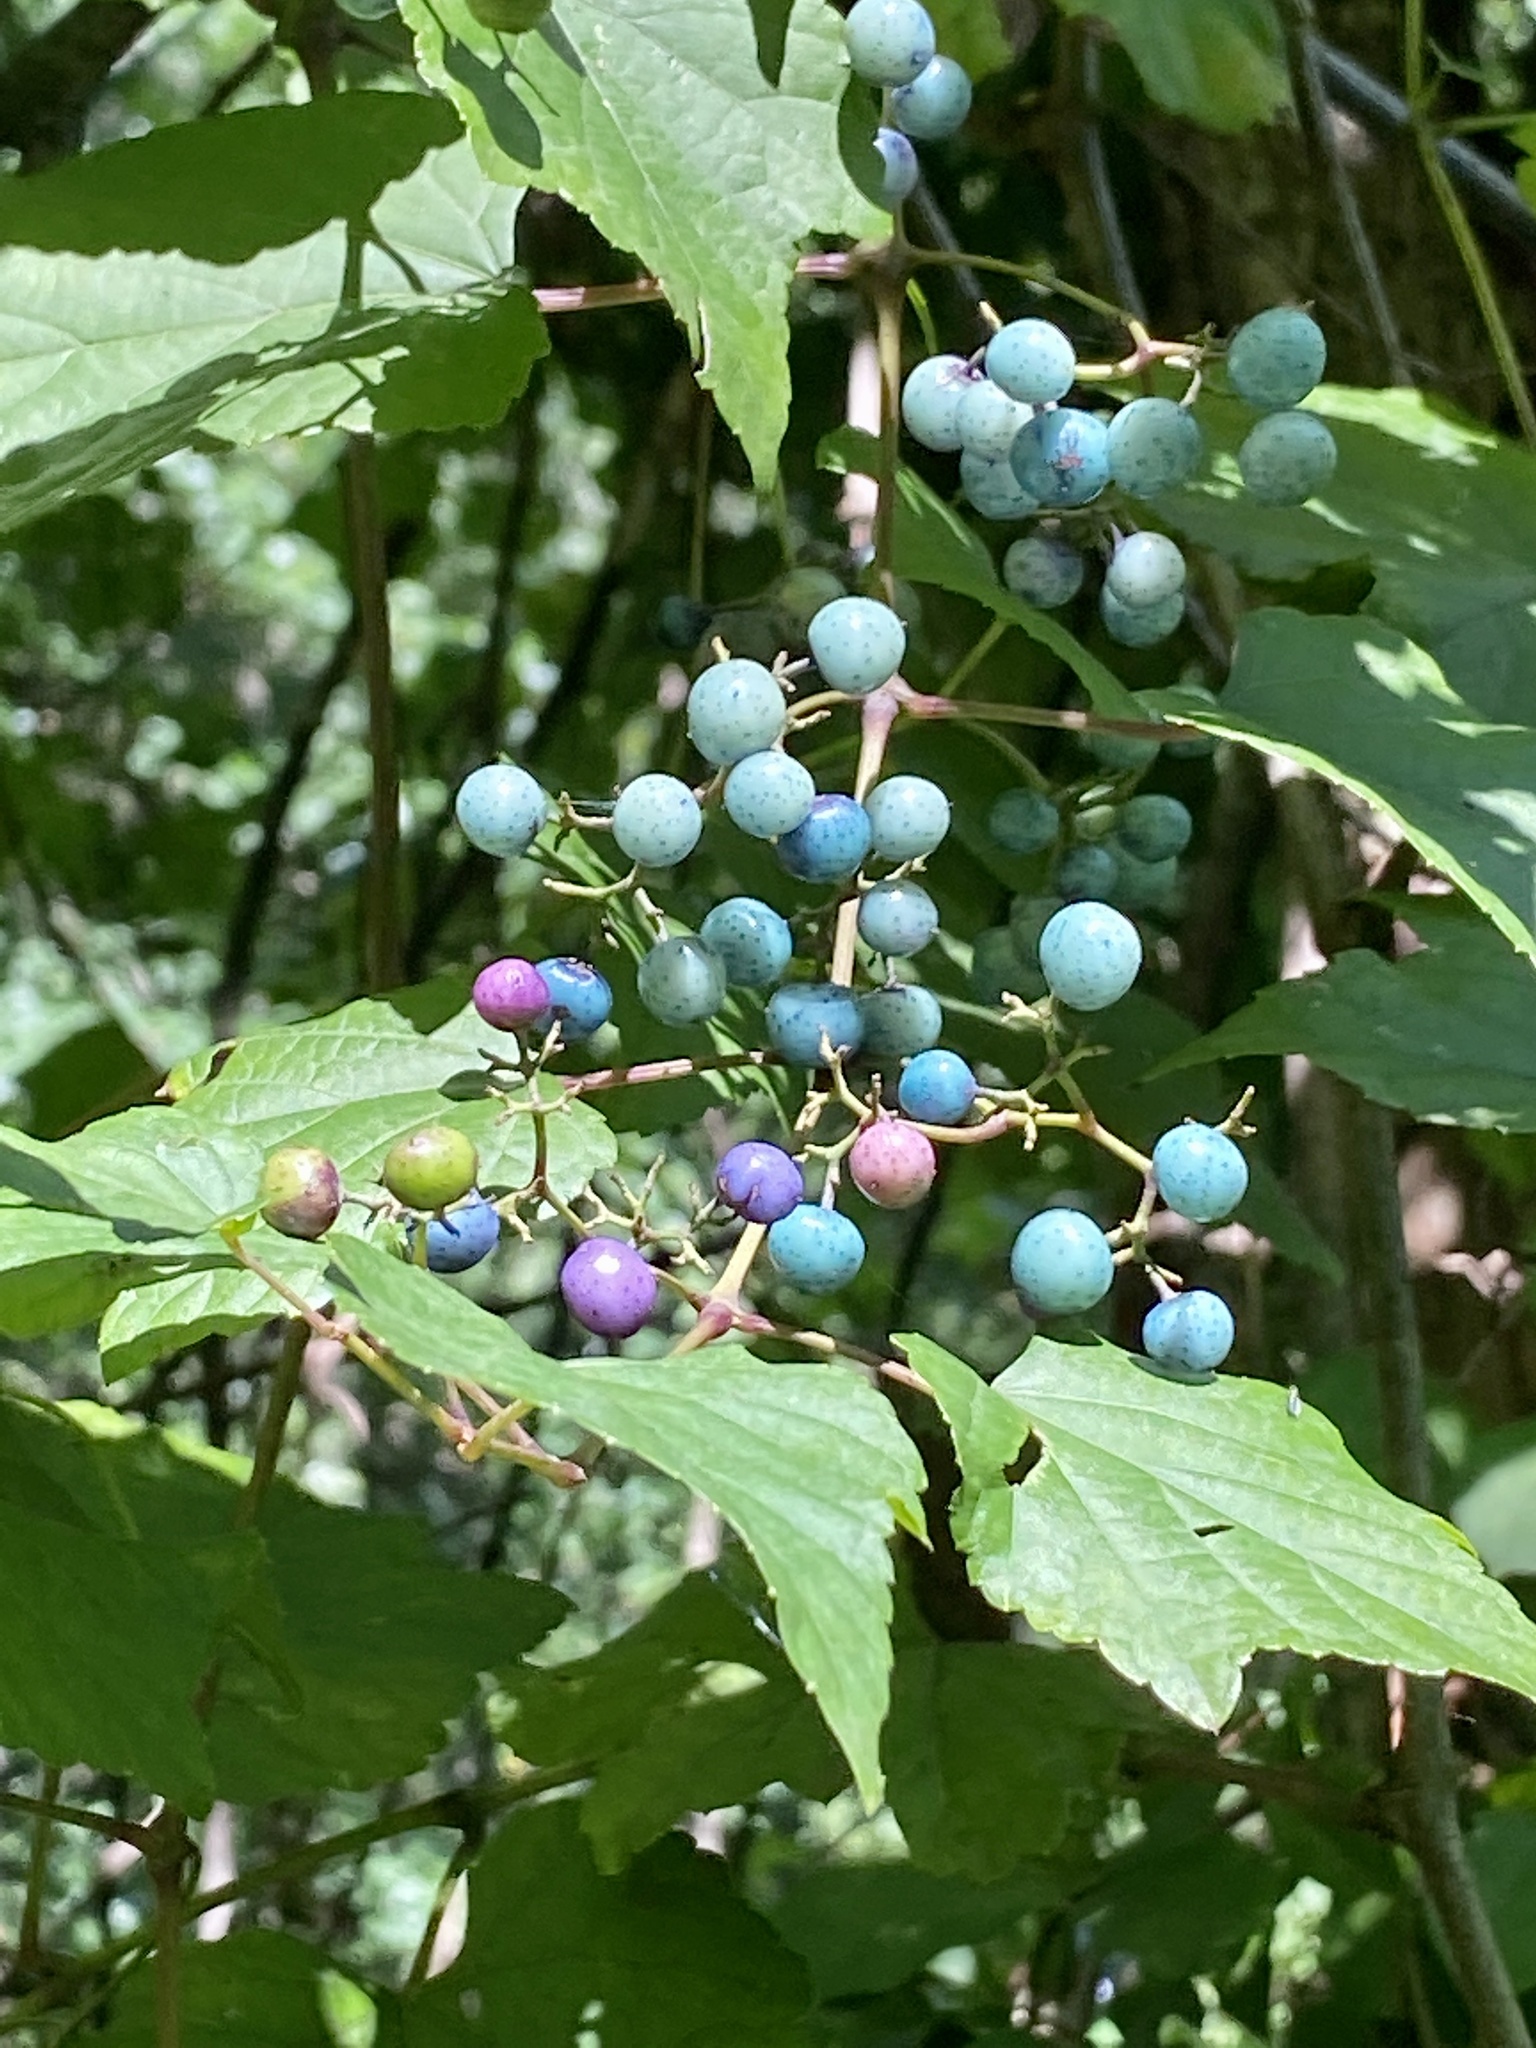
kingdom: Plantae
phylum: Tracheophyta
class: Magnoliopsida
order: Vitales
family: Vitaceae
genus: Ampelopsis
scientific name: Ampelopsis glandulosa
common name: Amur peppervine
